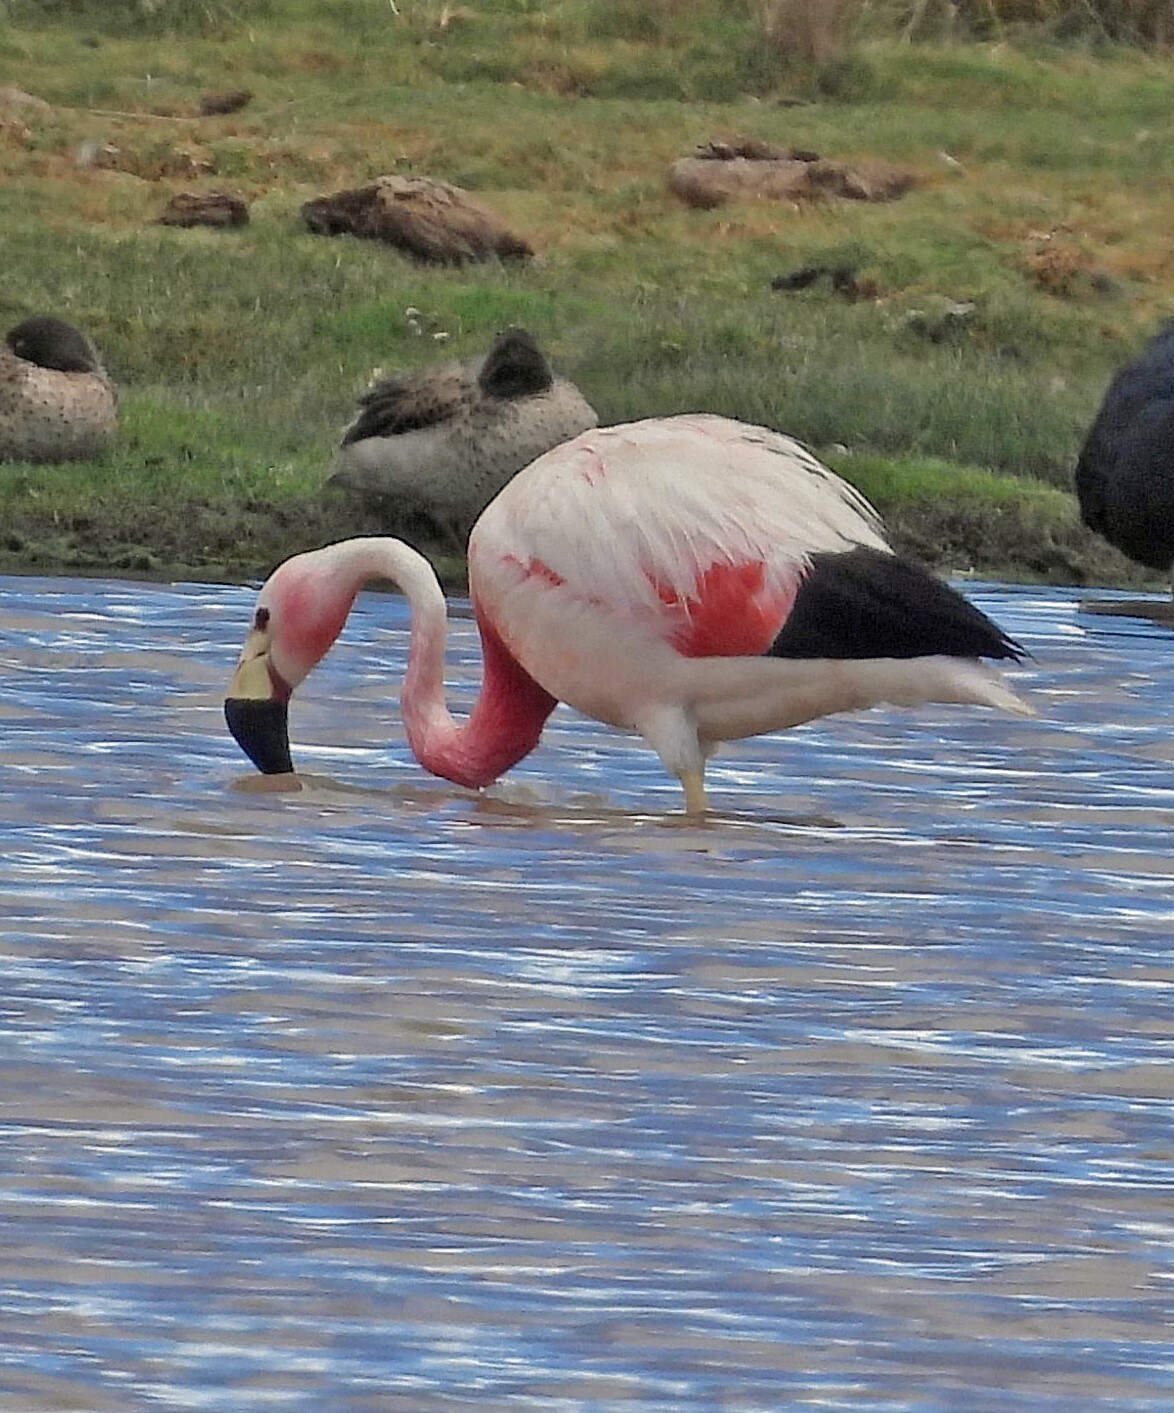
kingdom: Animalia
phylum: Chordata
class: Aves
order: Phoenicopteriformes
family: Phoenicopteridae
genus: Phoenicoparrus
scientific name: Phoenicoparrus andinus
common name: Andean flamingo
